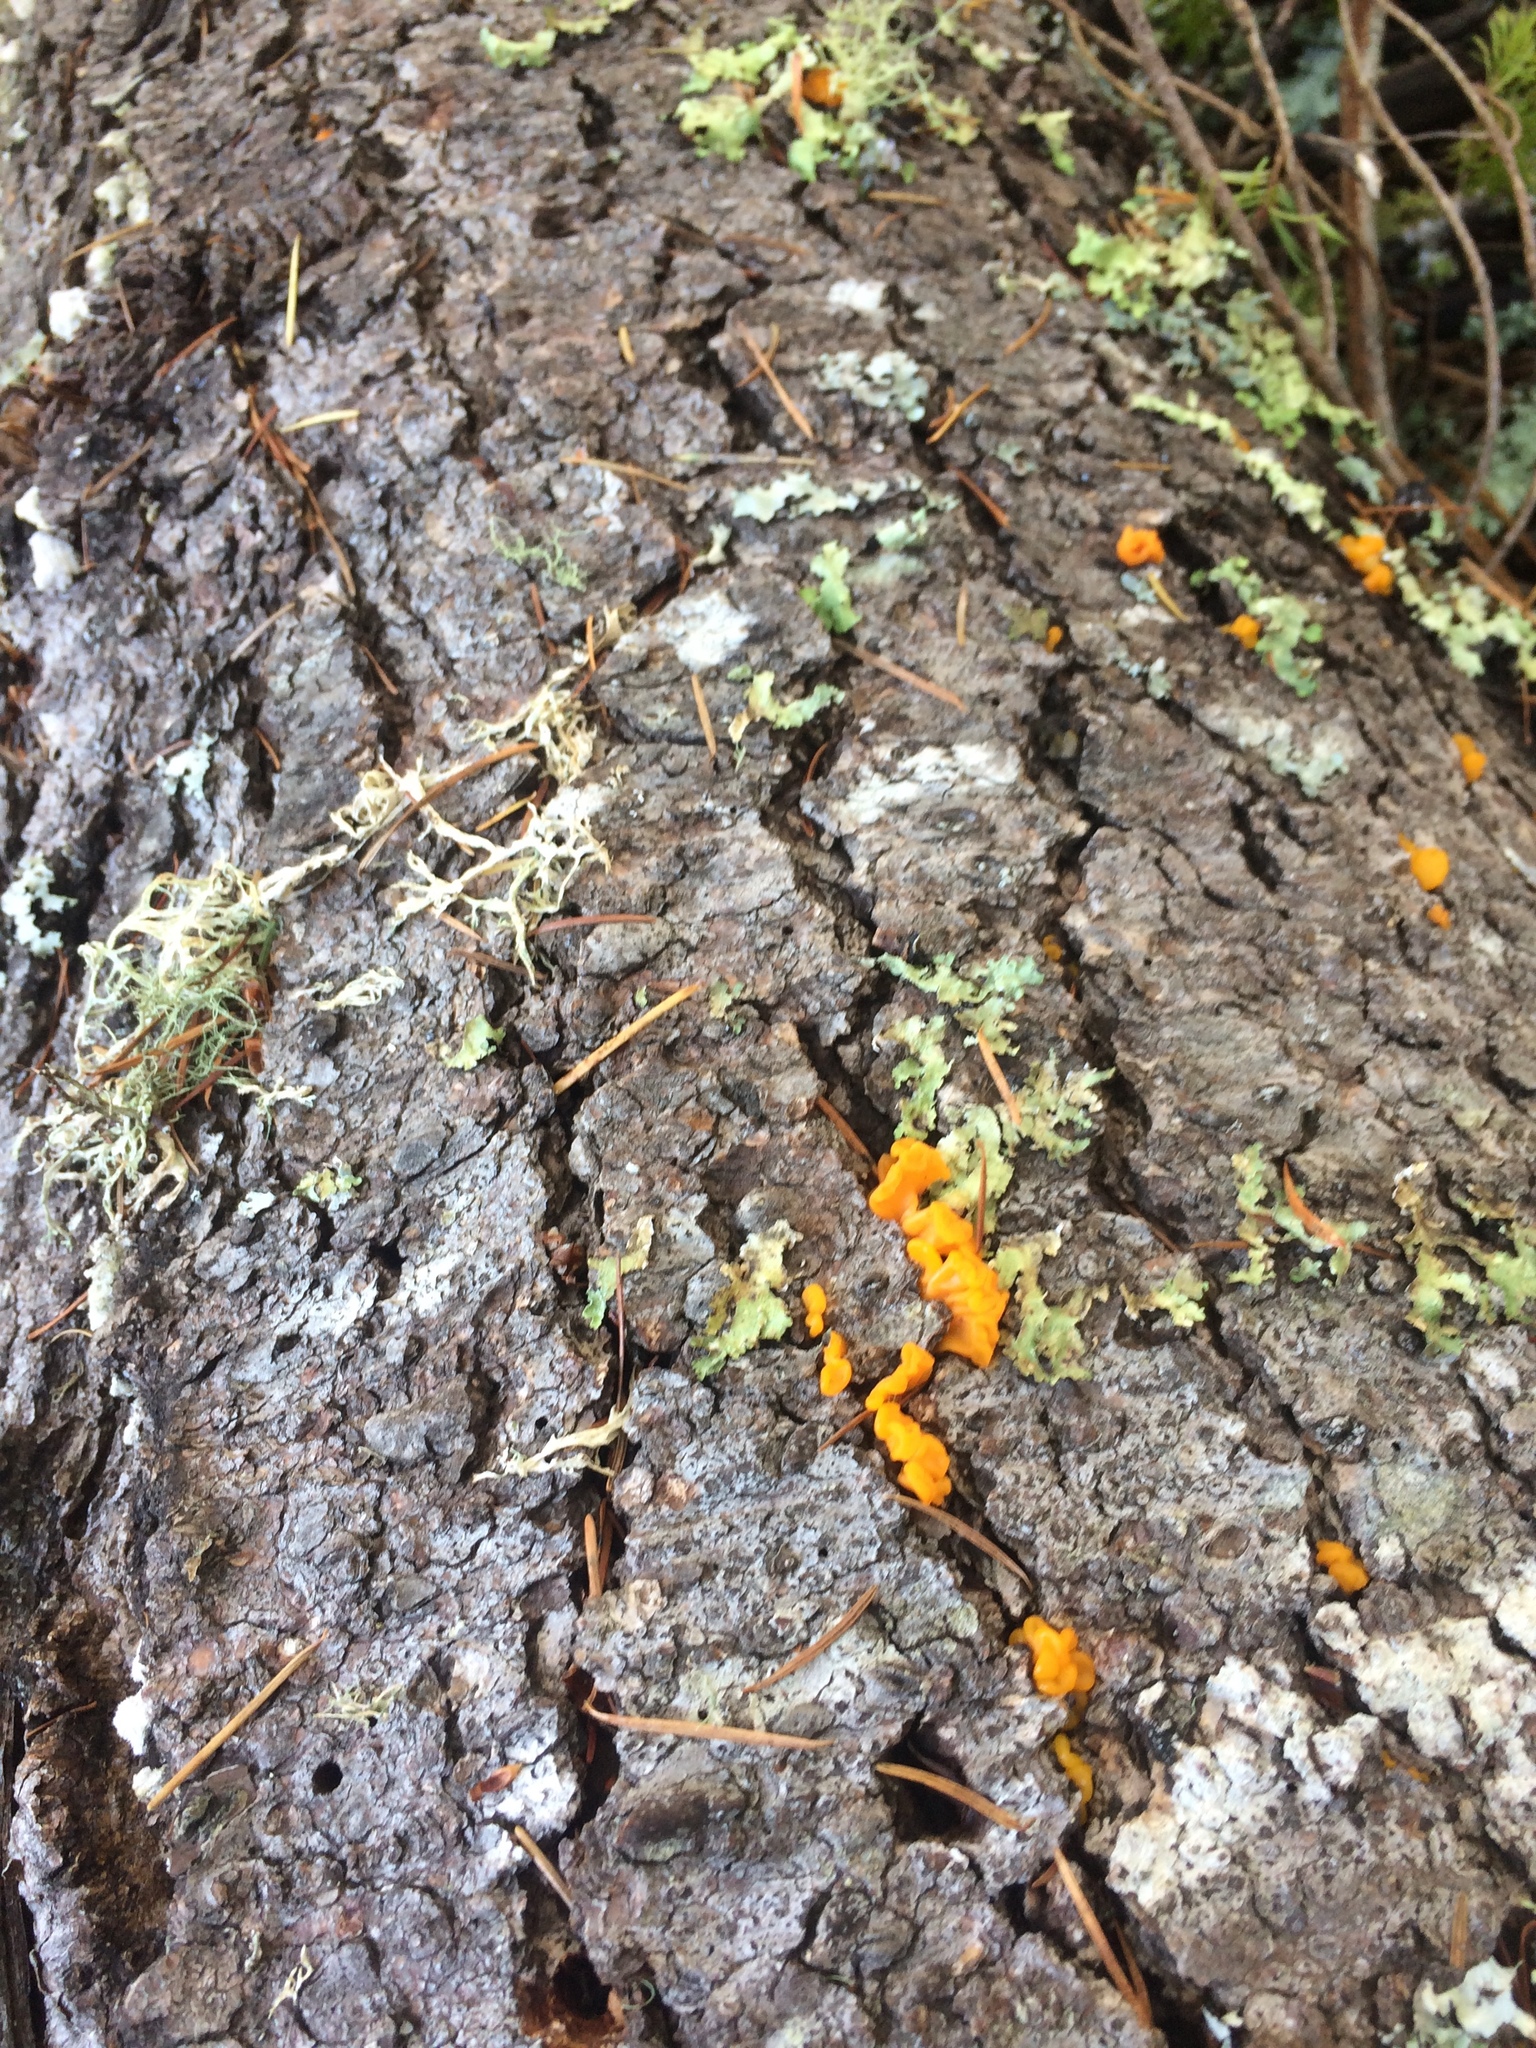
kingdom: Fungi
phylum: Basidiomycota
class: Dacrymycetes
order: Dacrymycetales
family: Dacrymycetaceae
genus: Dacrymyces
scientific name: Dacrymyces chrysospermus
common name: Orange jelly spot
